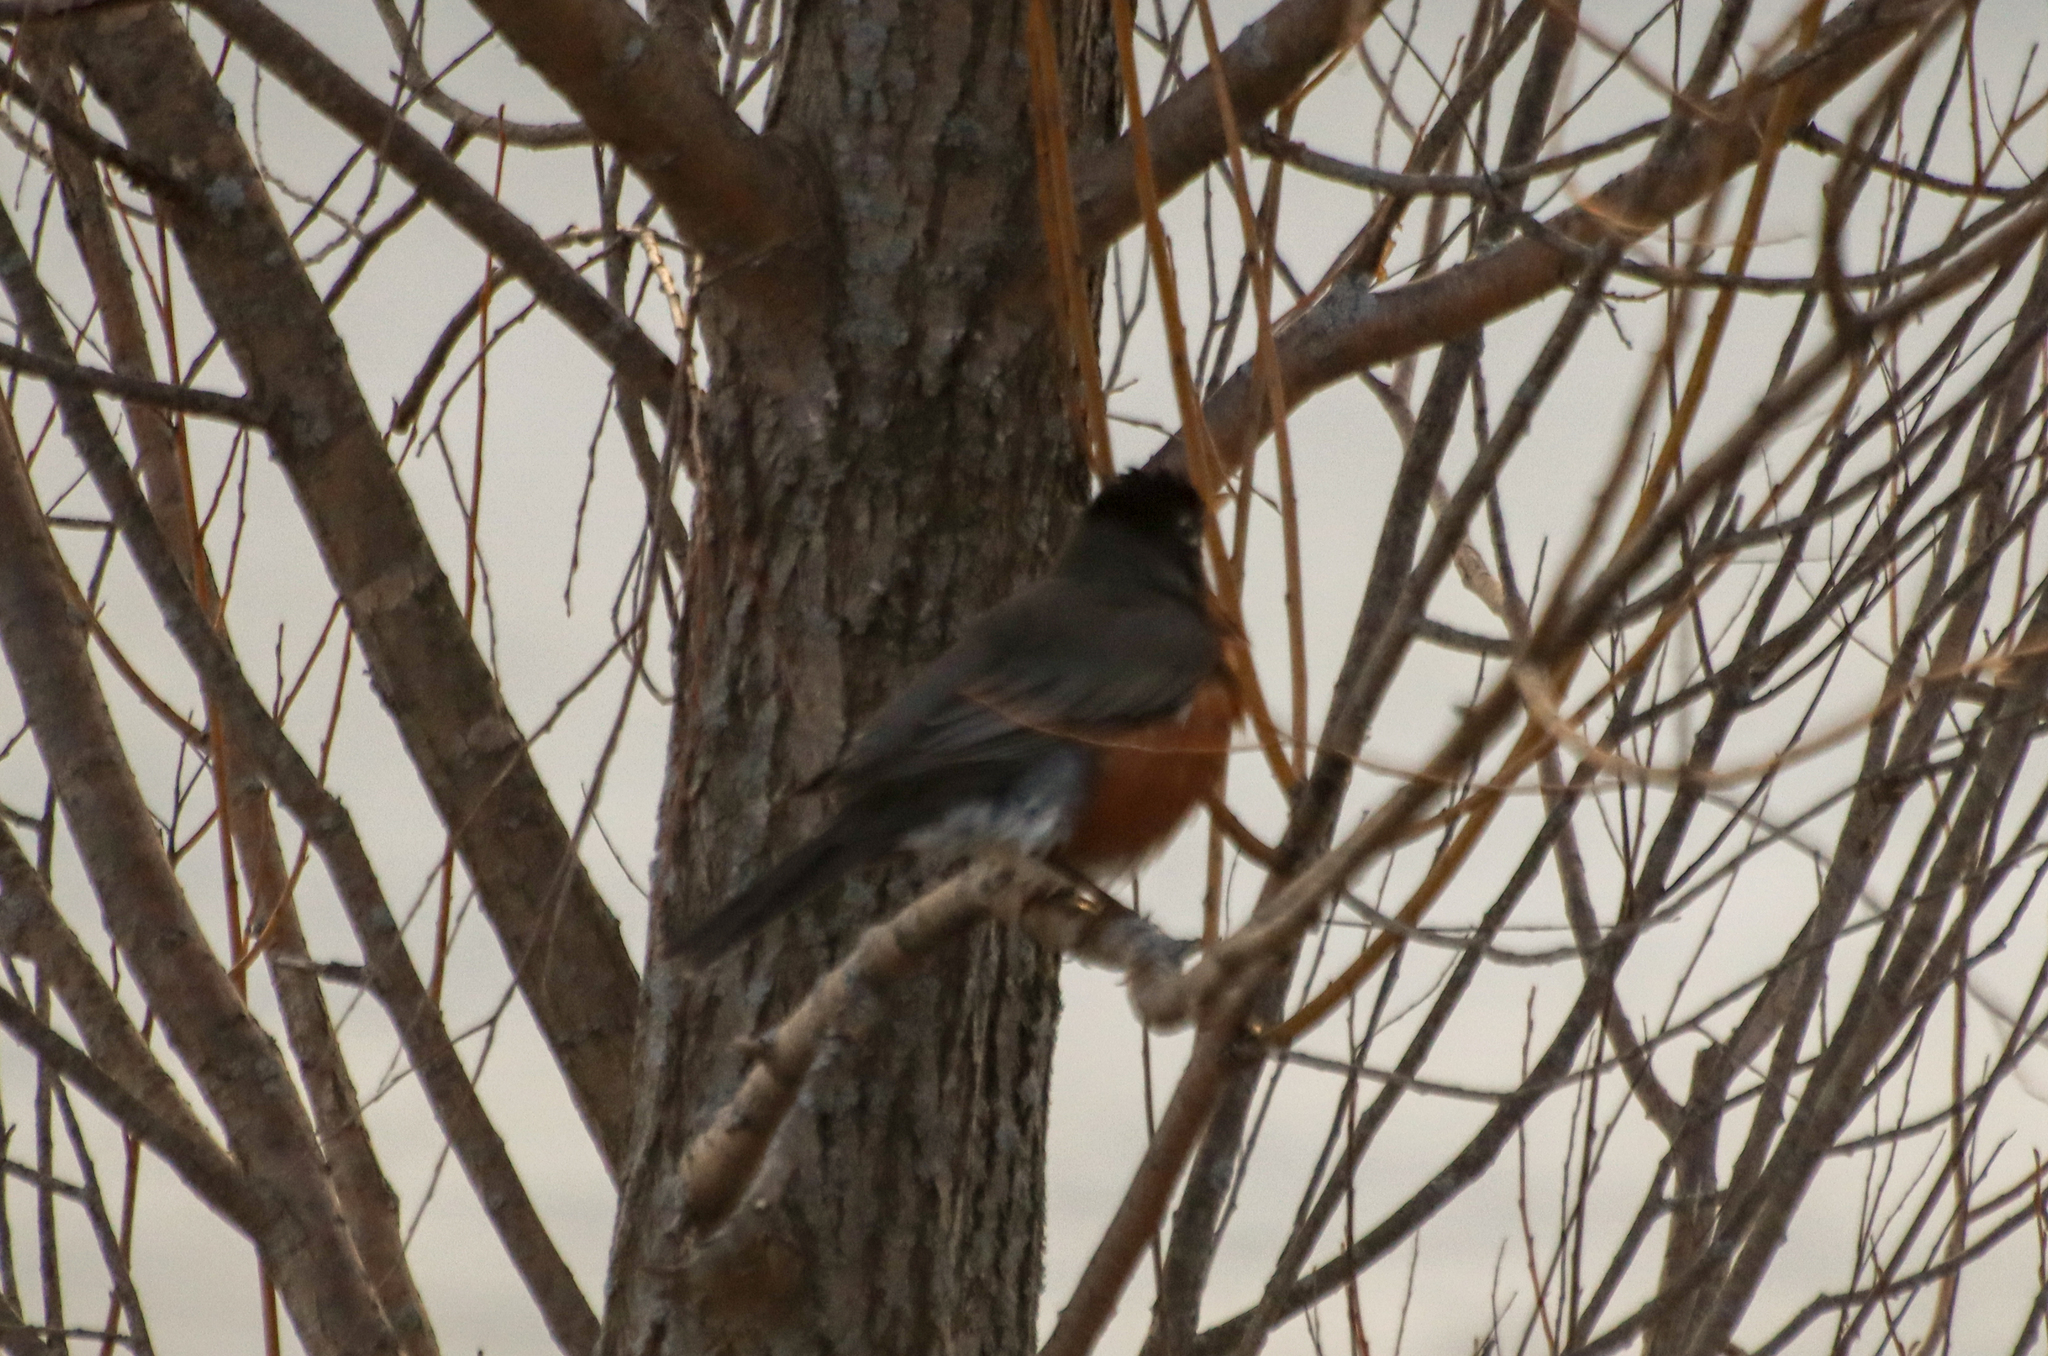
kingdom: Animalia
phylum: Chordata
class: Aves
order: Passeriformes
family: Turdidae
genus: Turdus
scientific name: Turdus migratorius
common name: American robin
